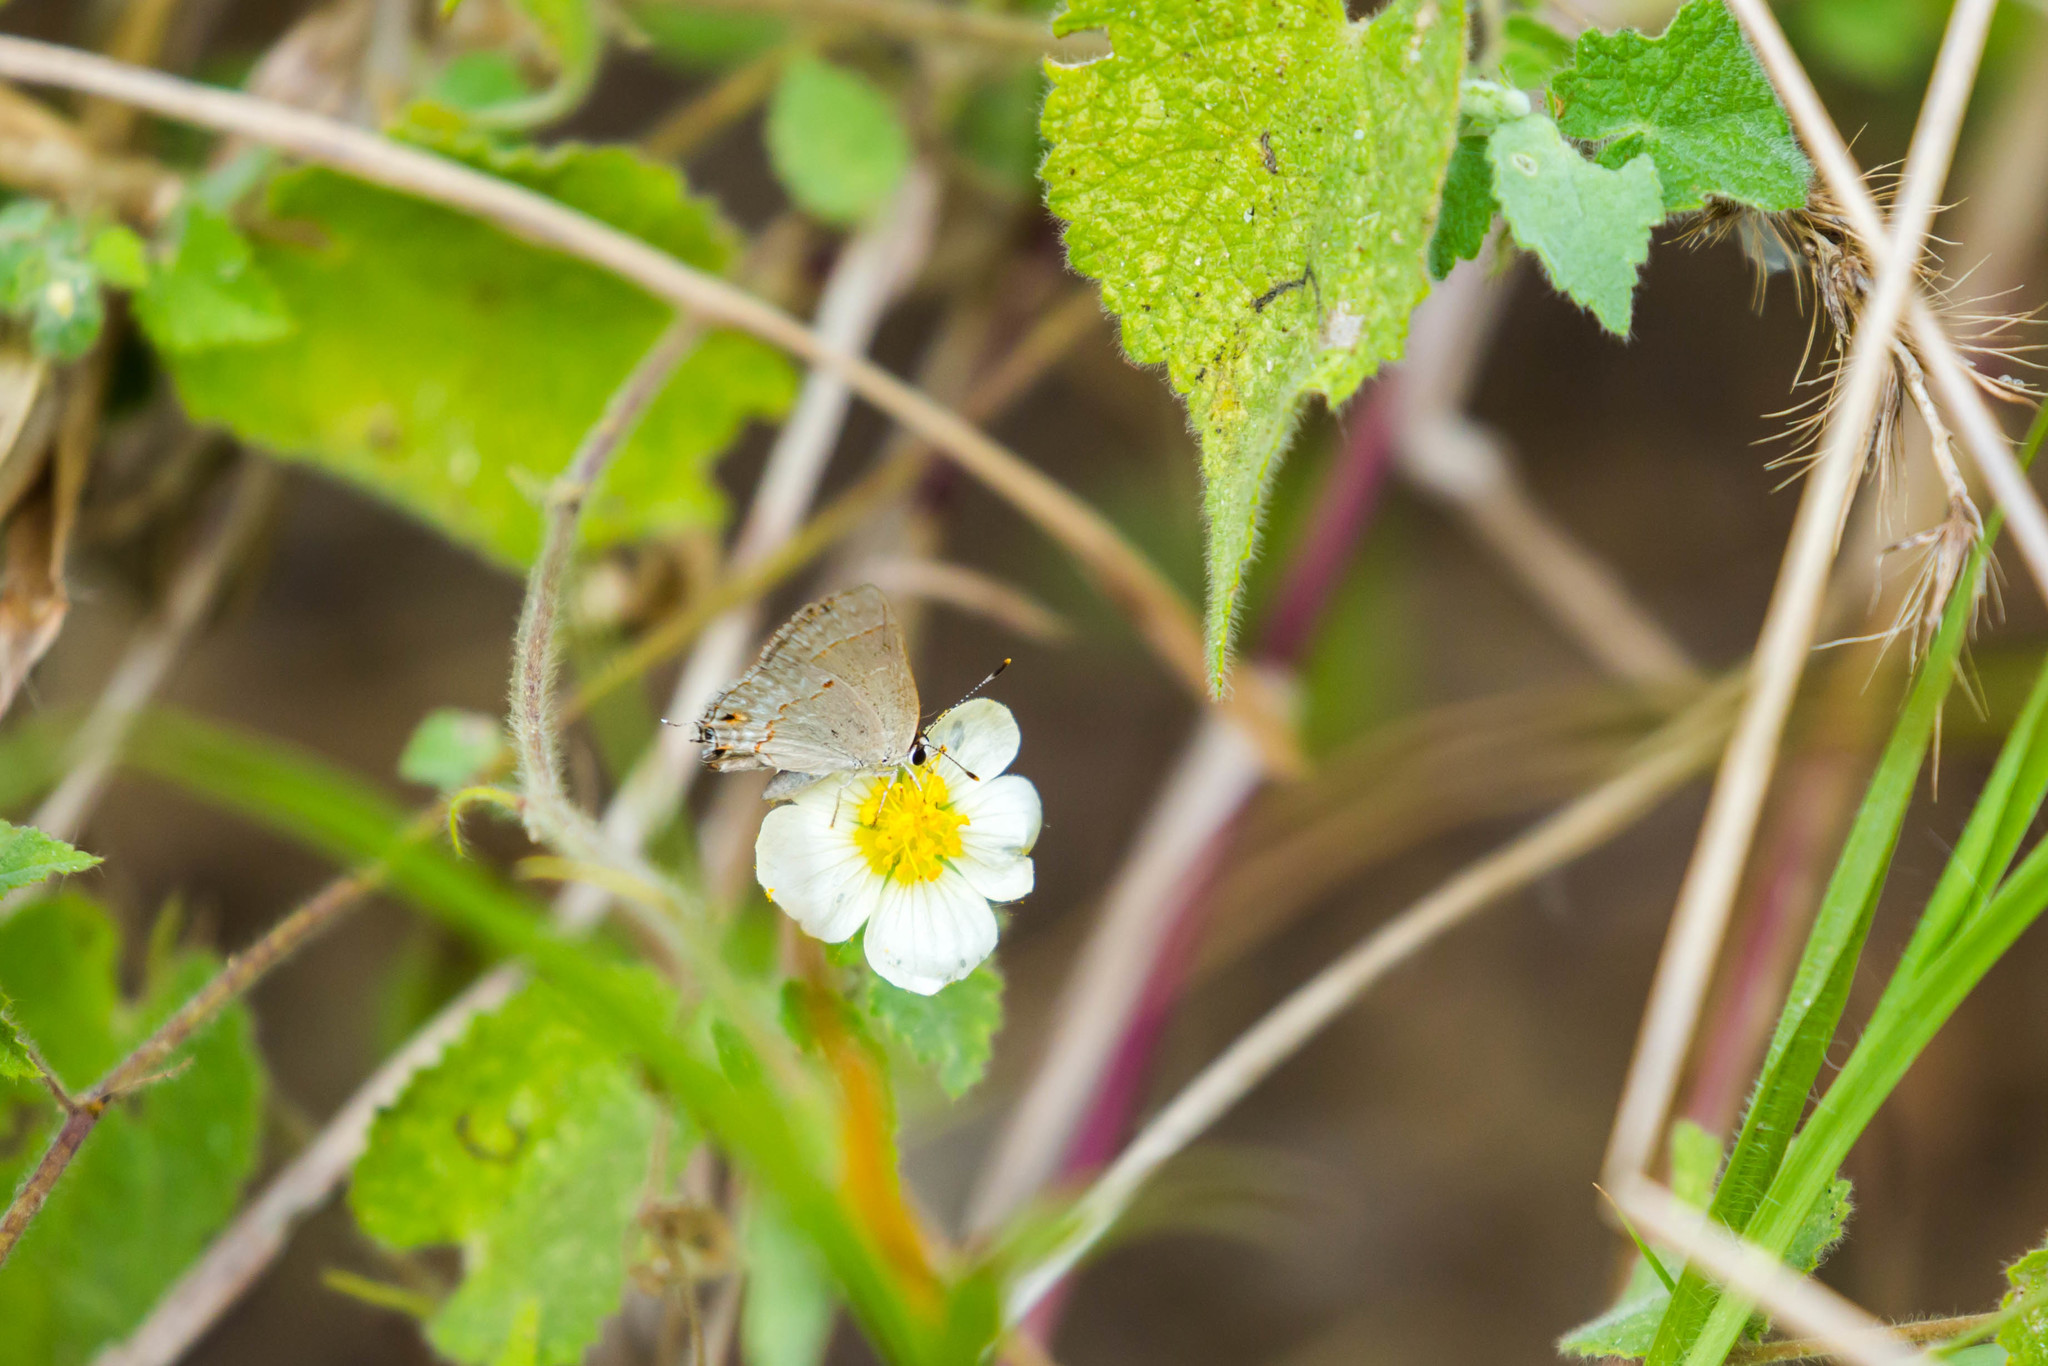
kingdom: Animalia
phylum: Arthropoda
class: Insecta
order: Lepidoptera
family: Lycaenidae
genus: Thecla
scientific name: Thecla rufofusca
